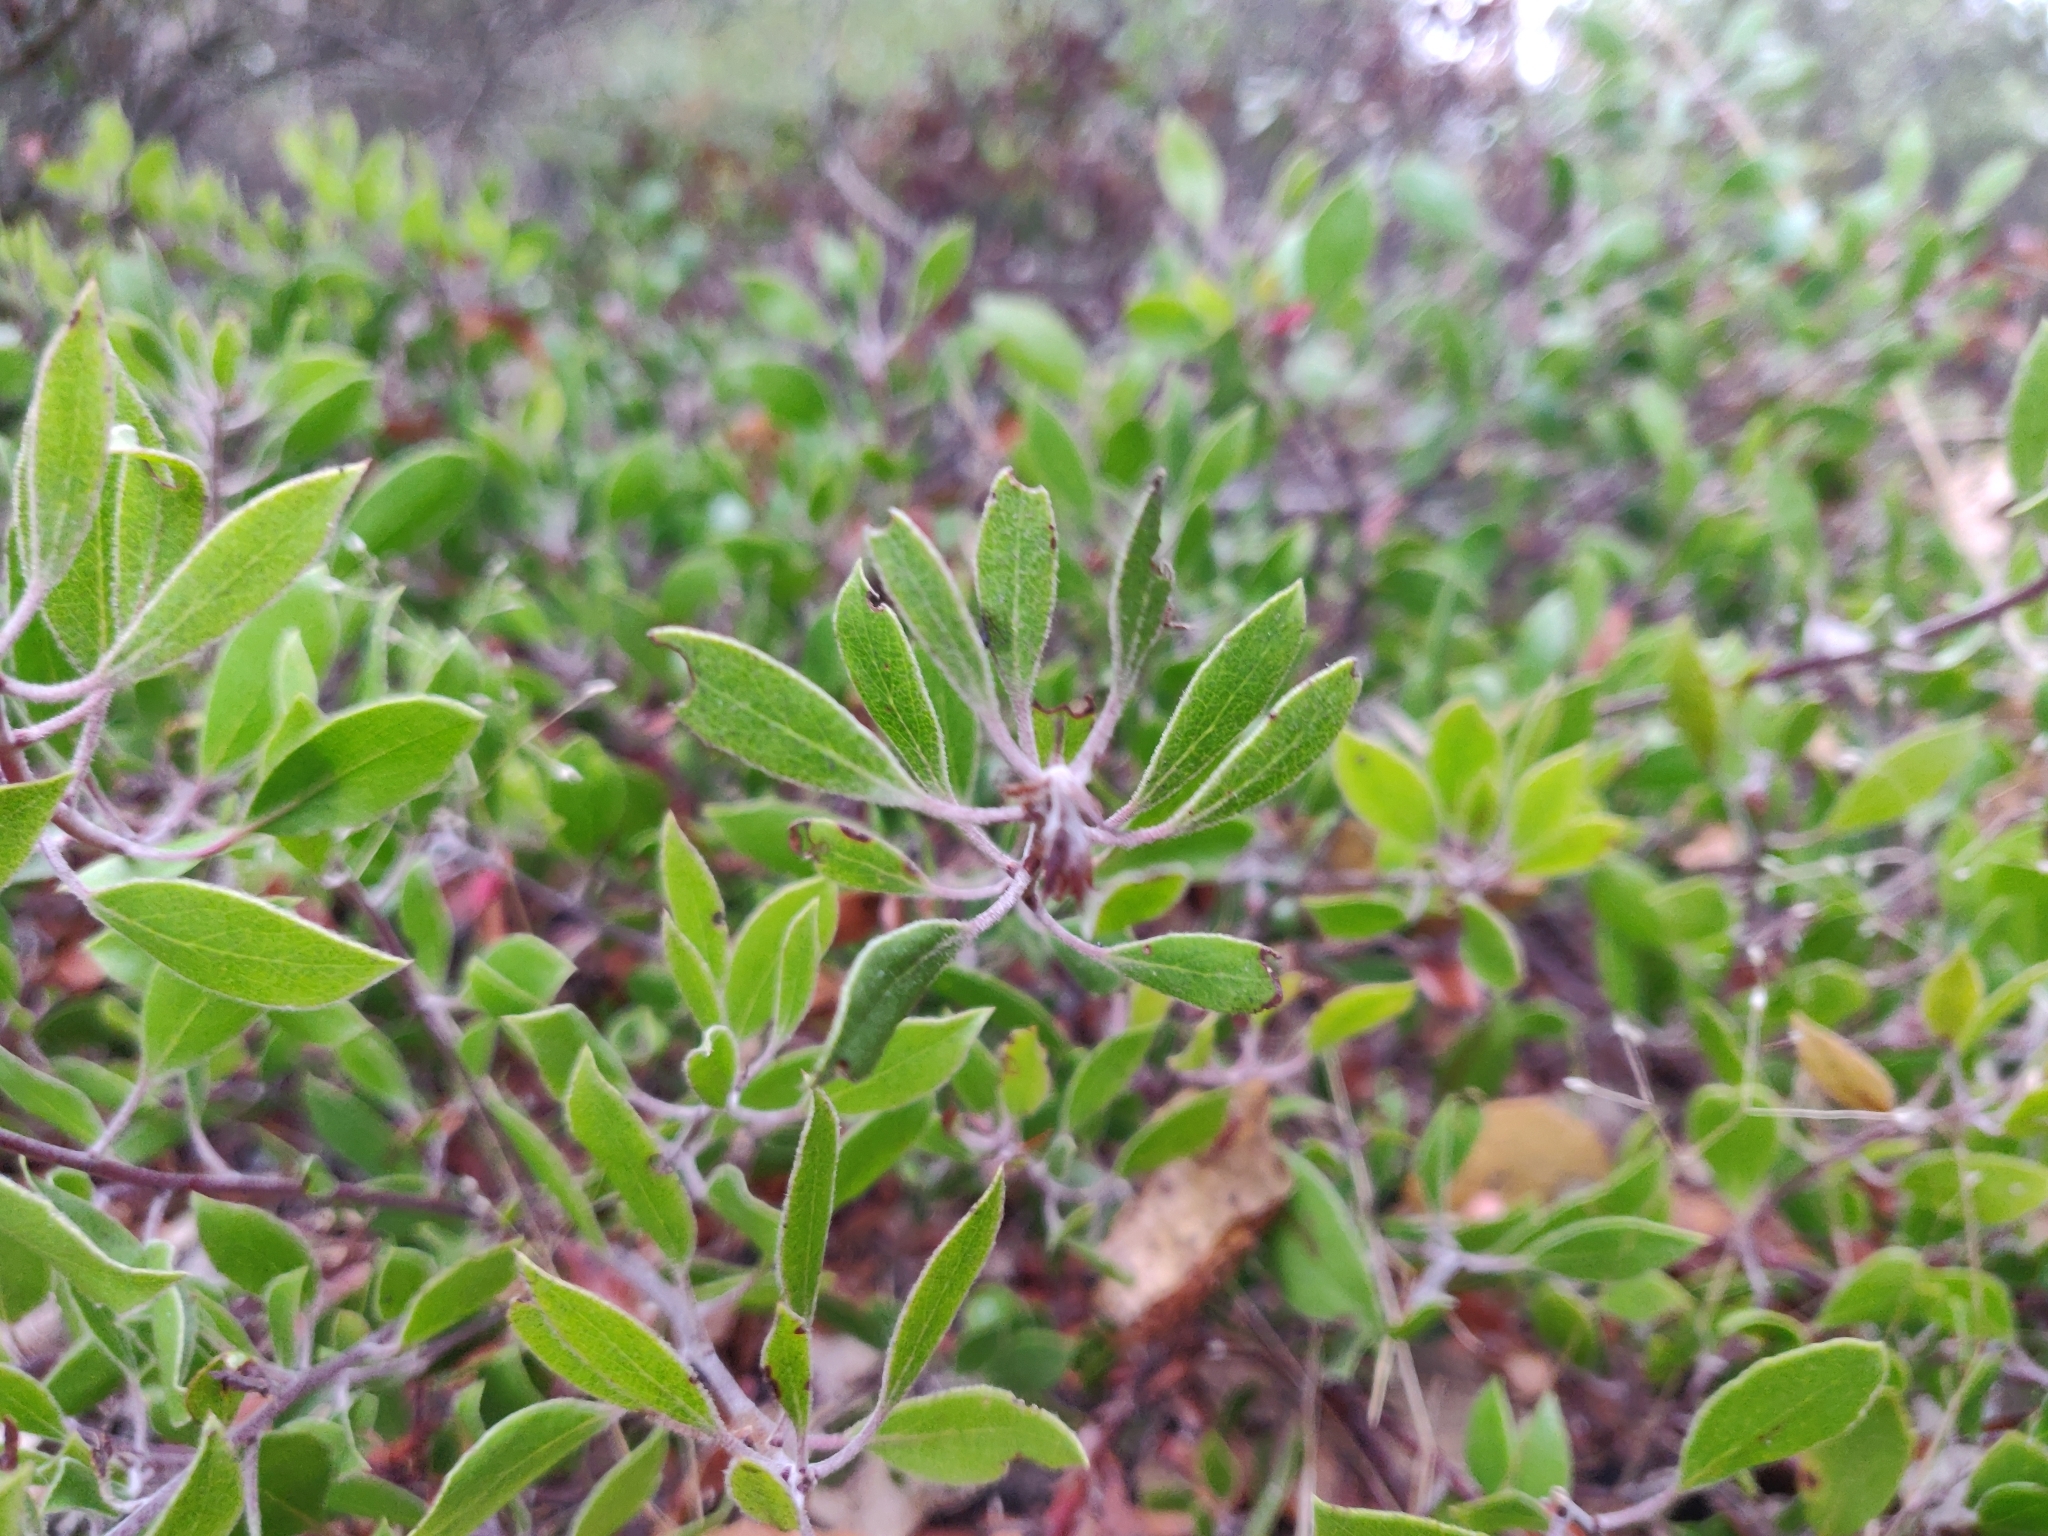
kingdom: Plantae
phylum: Tracheophyta
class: Magnoliopsida
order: Ericales
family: Ericaceae
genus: Arctostaphylos
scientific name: Arctostaphylos hookeri
